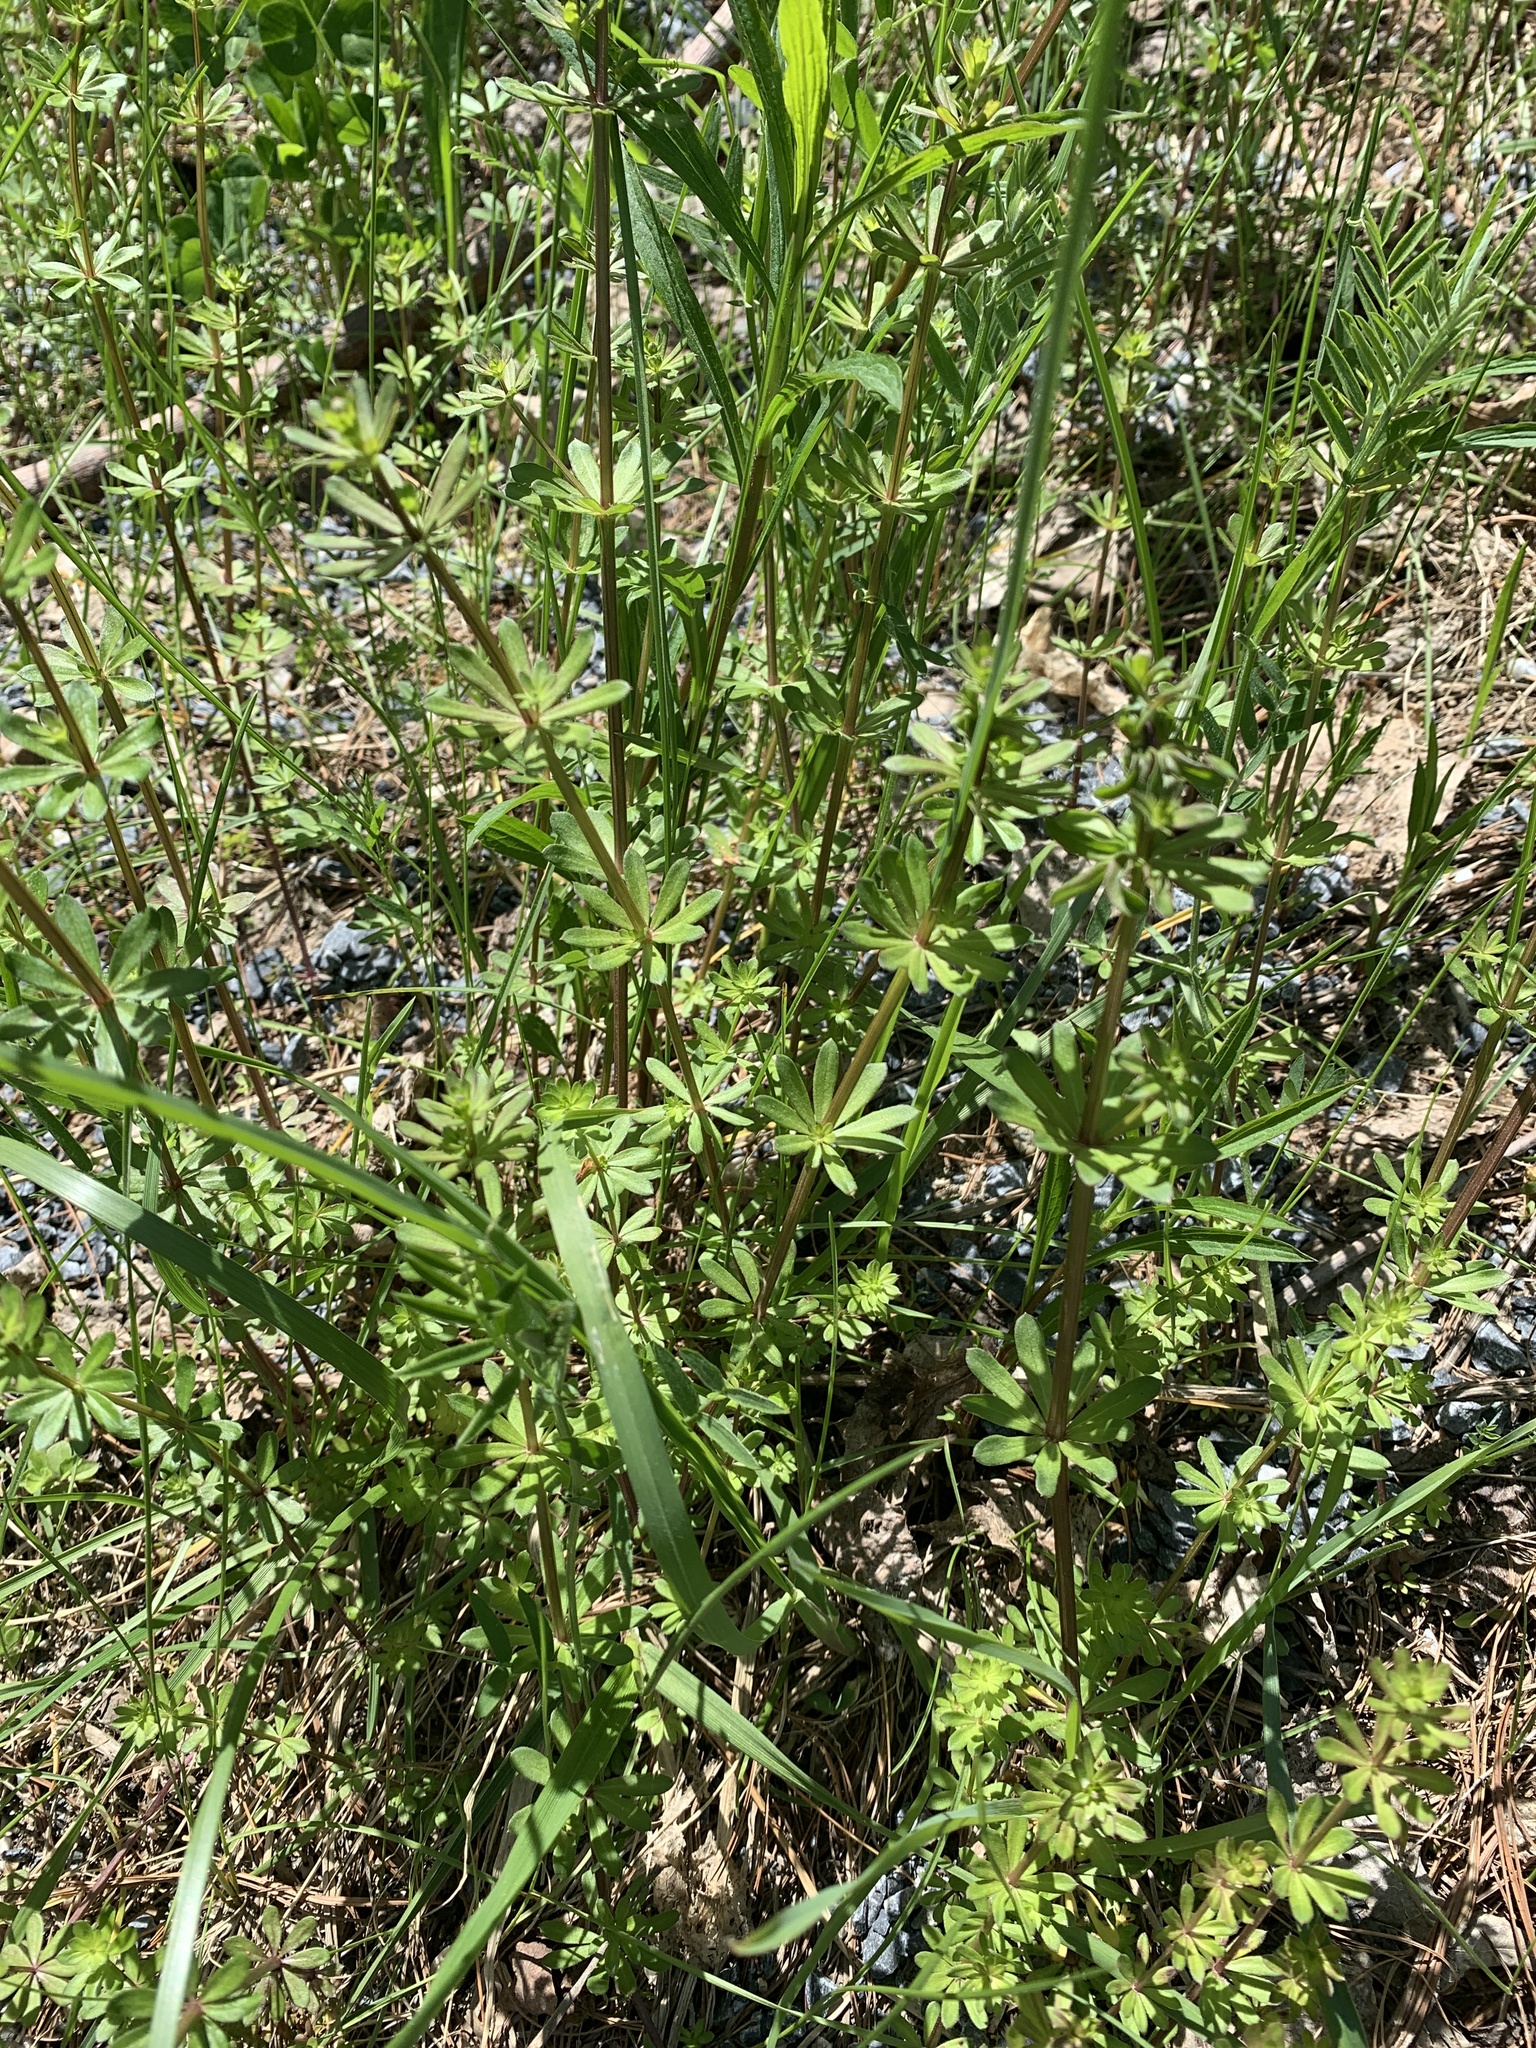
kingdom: Plantae
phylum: Tracheophyta
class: Magnoliopsida
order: Gentianales
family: Rubiaceae
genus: Galium
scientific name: Galium mollugo
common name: Hedge bedstraw
